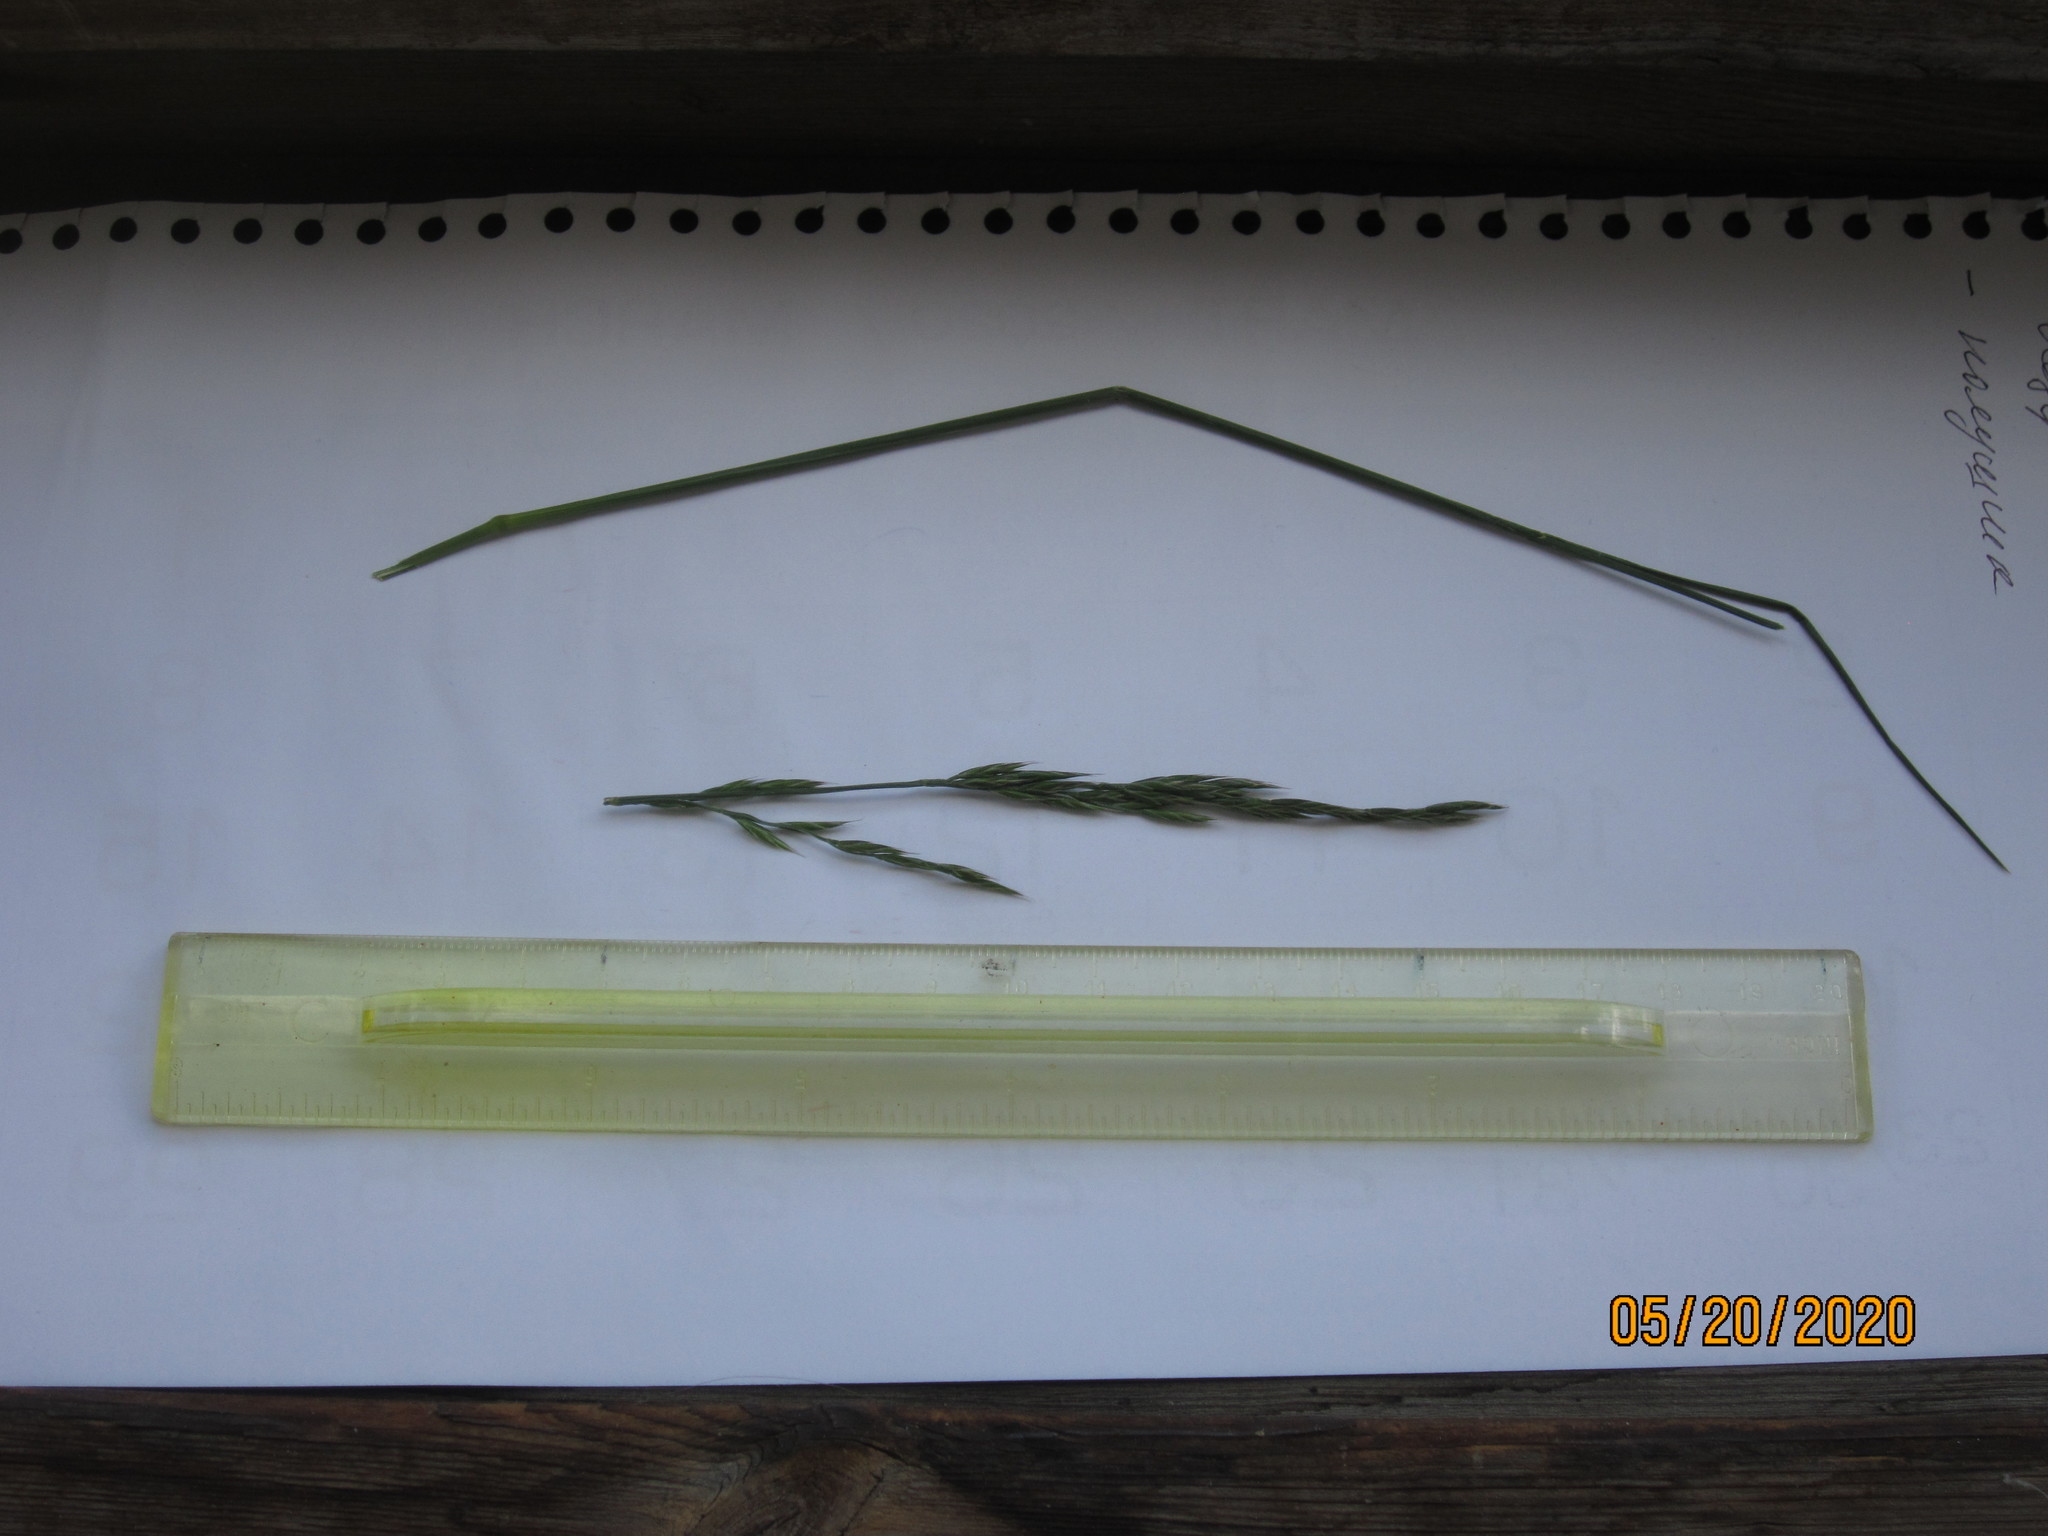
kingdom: Plantae
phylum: Tracheophyta
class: Liliopsida
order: Poales
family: Poaceae
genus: Lolium
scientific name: Lolium pratense
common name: Dover grass
